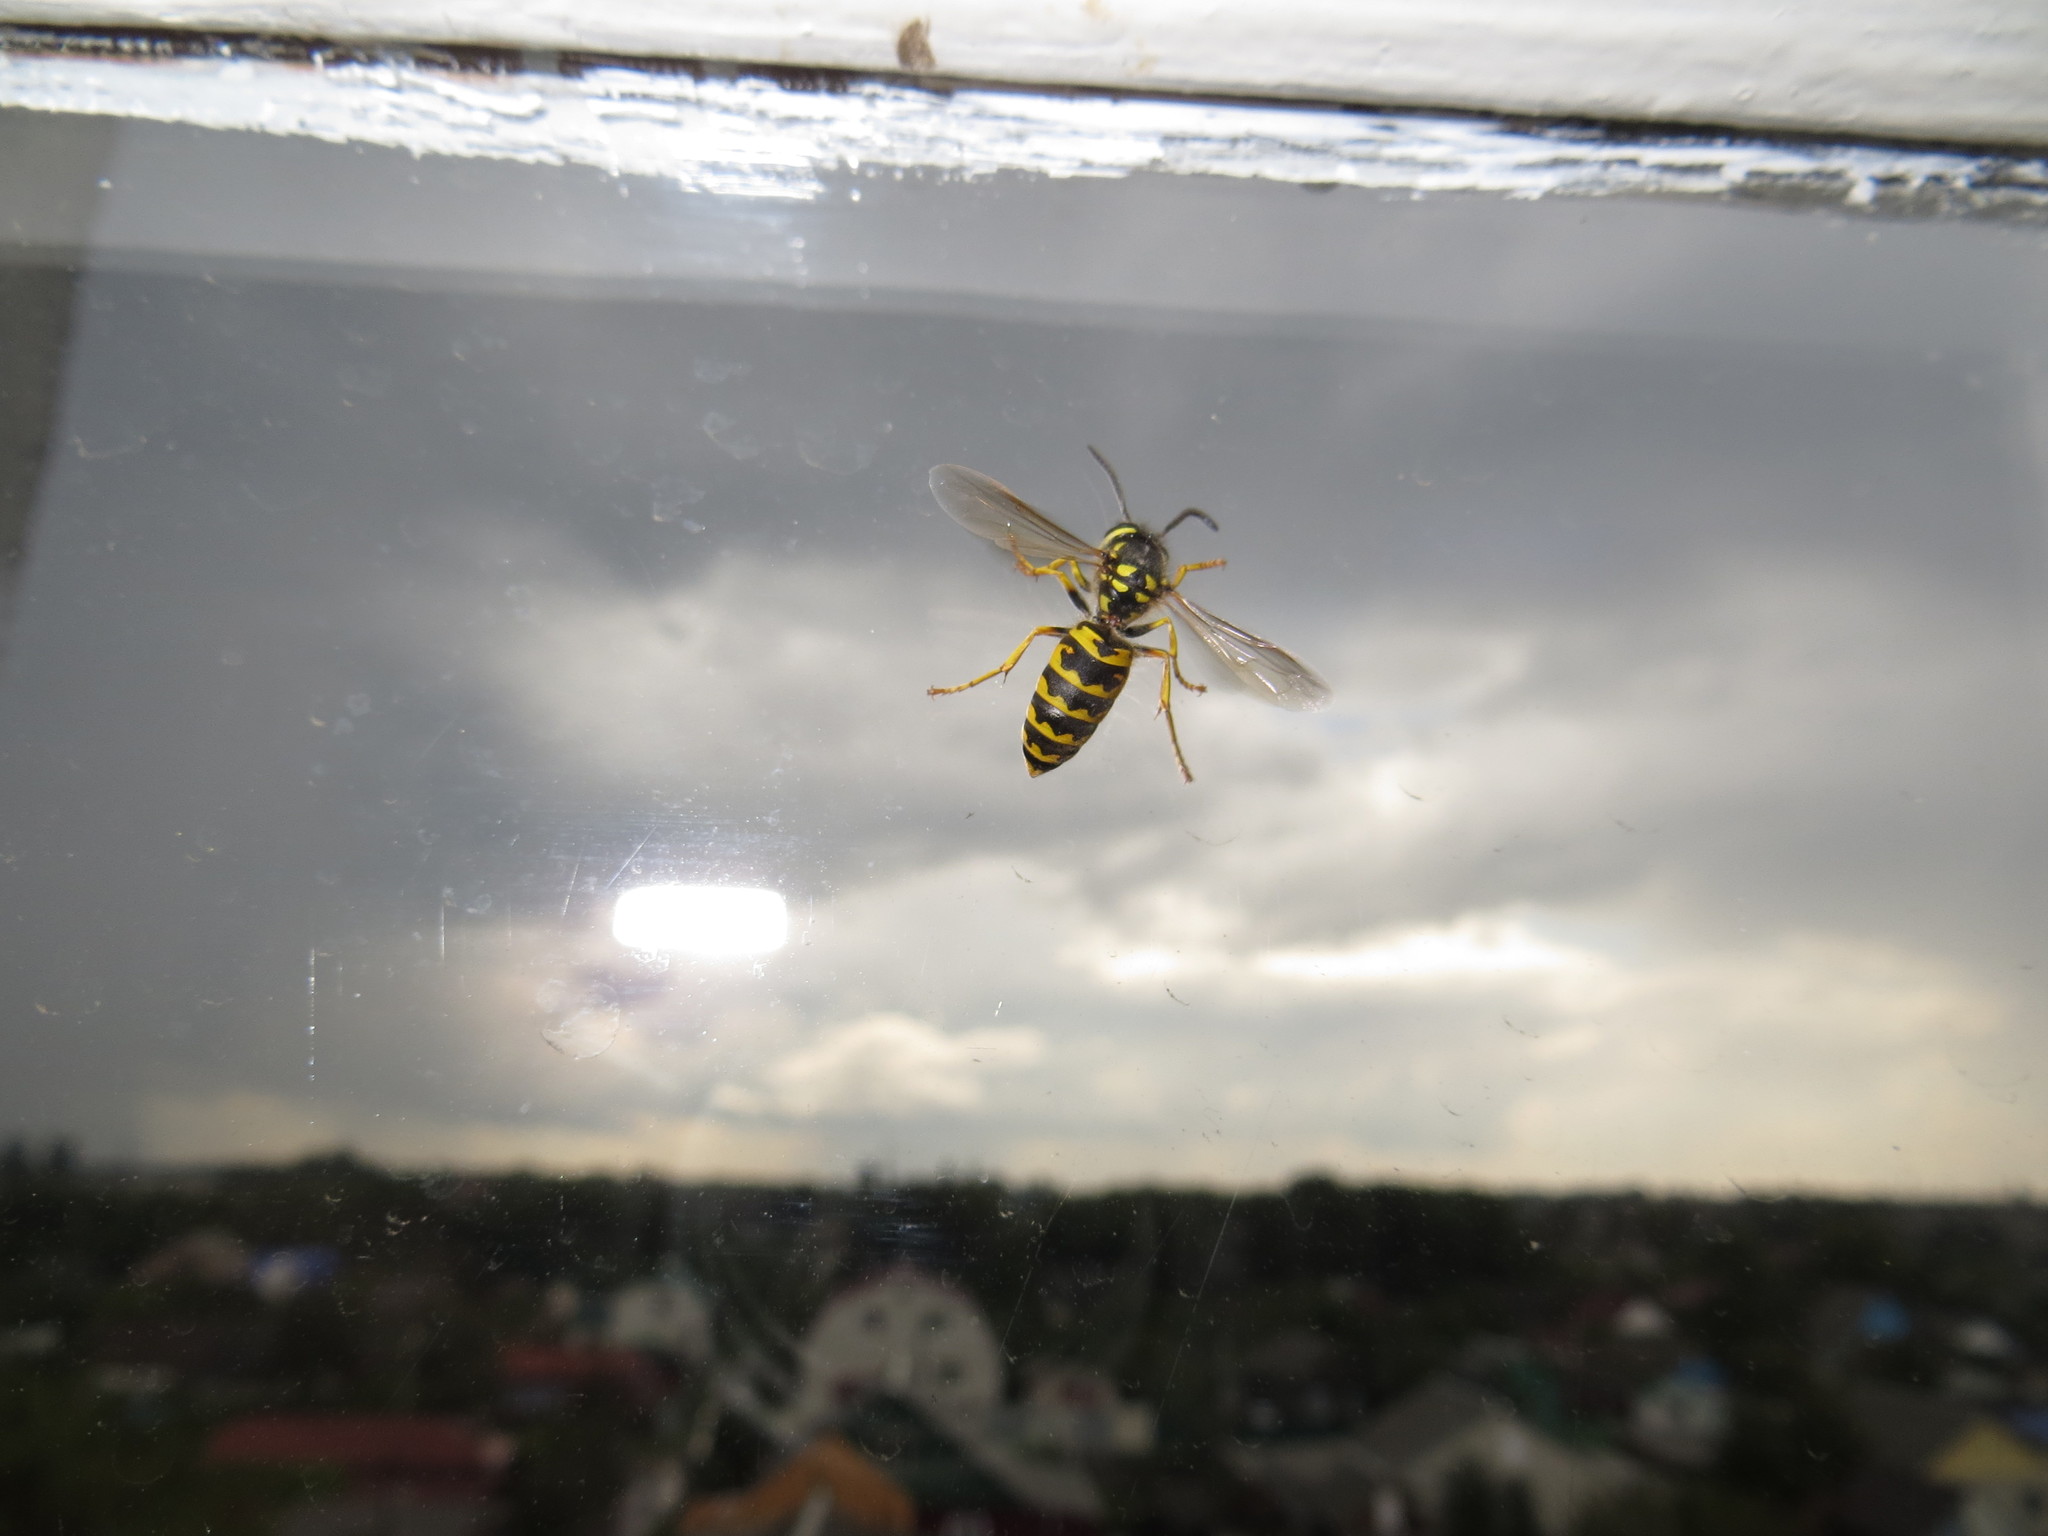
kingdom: Animalia
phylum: Arthropoda
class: Insecta
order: Hymenoptera
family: Vespidae
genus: Vespula
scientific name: Vespula germanica
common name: German wasp
